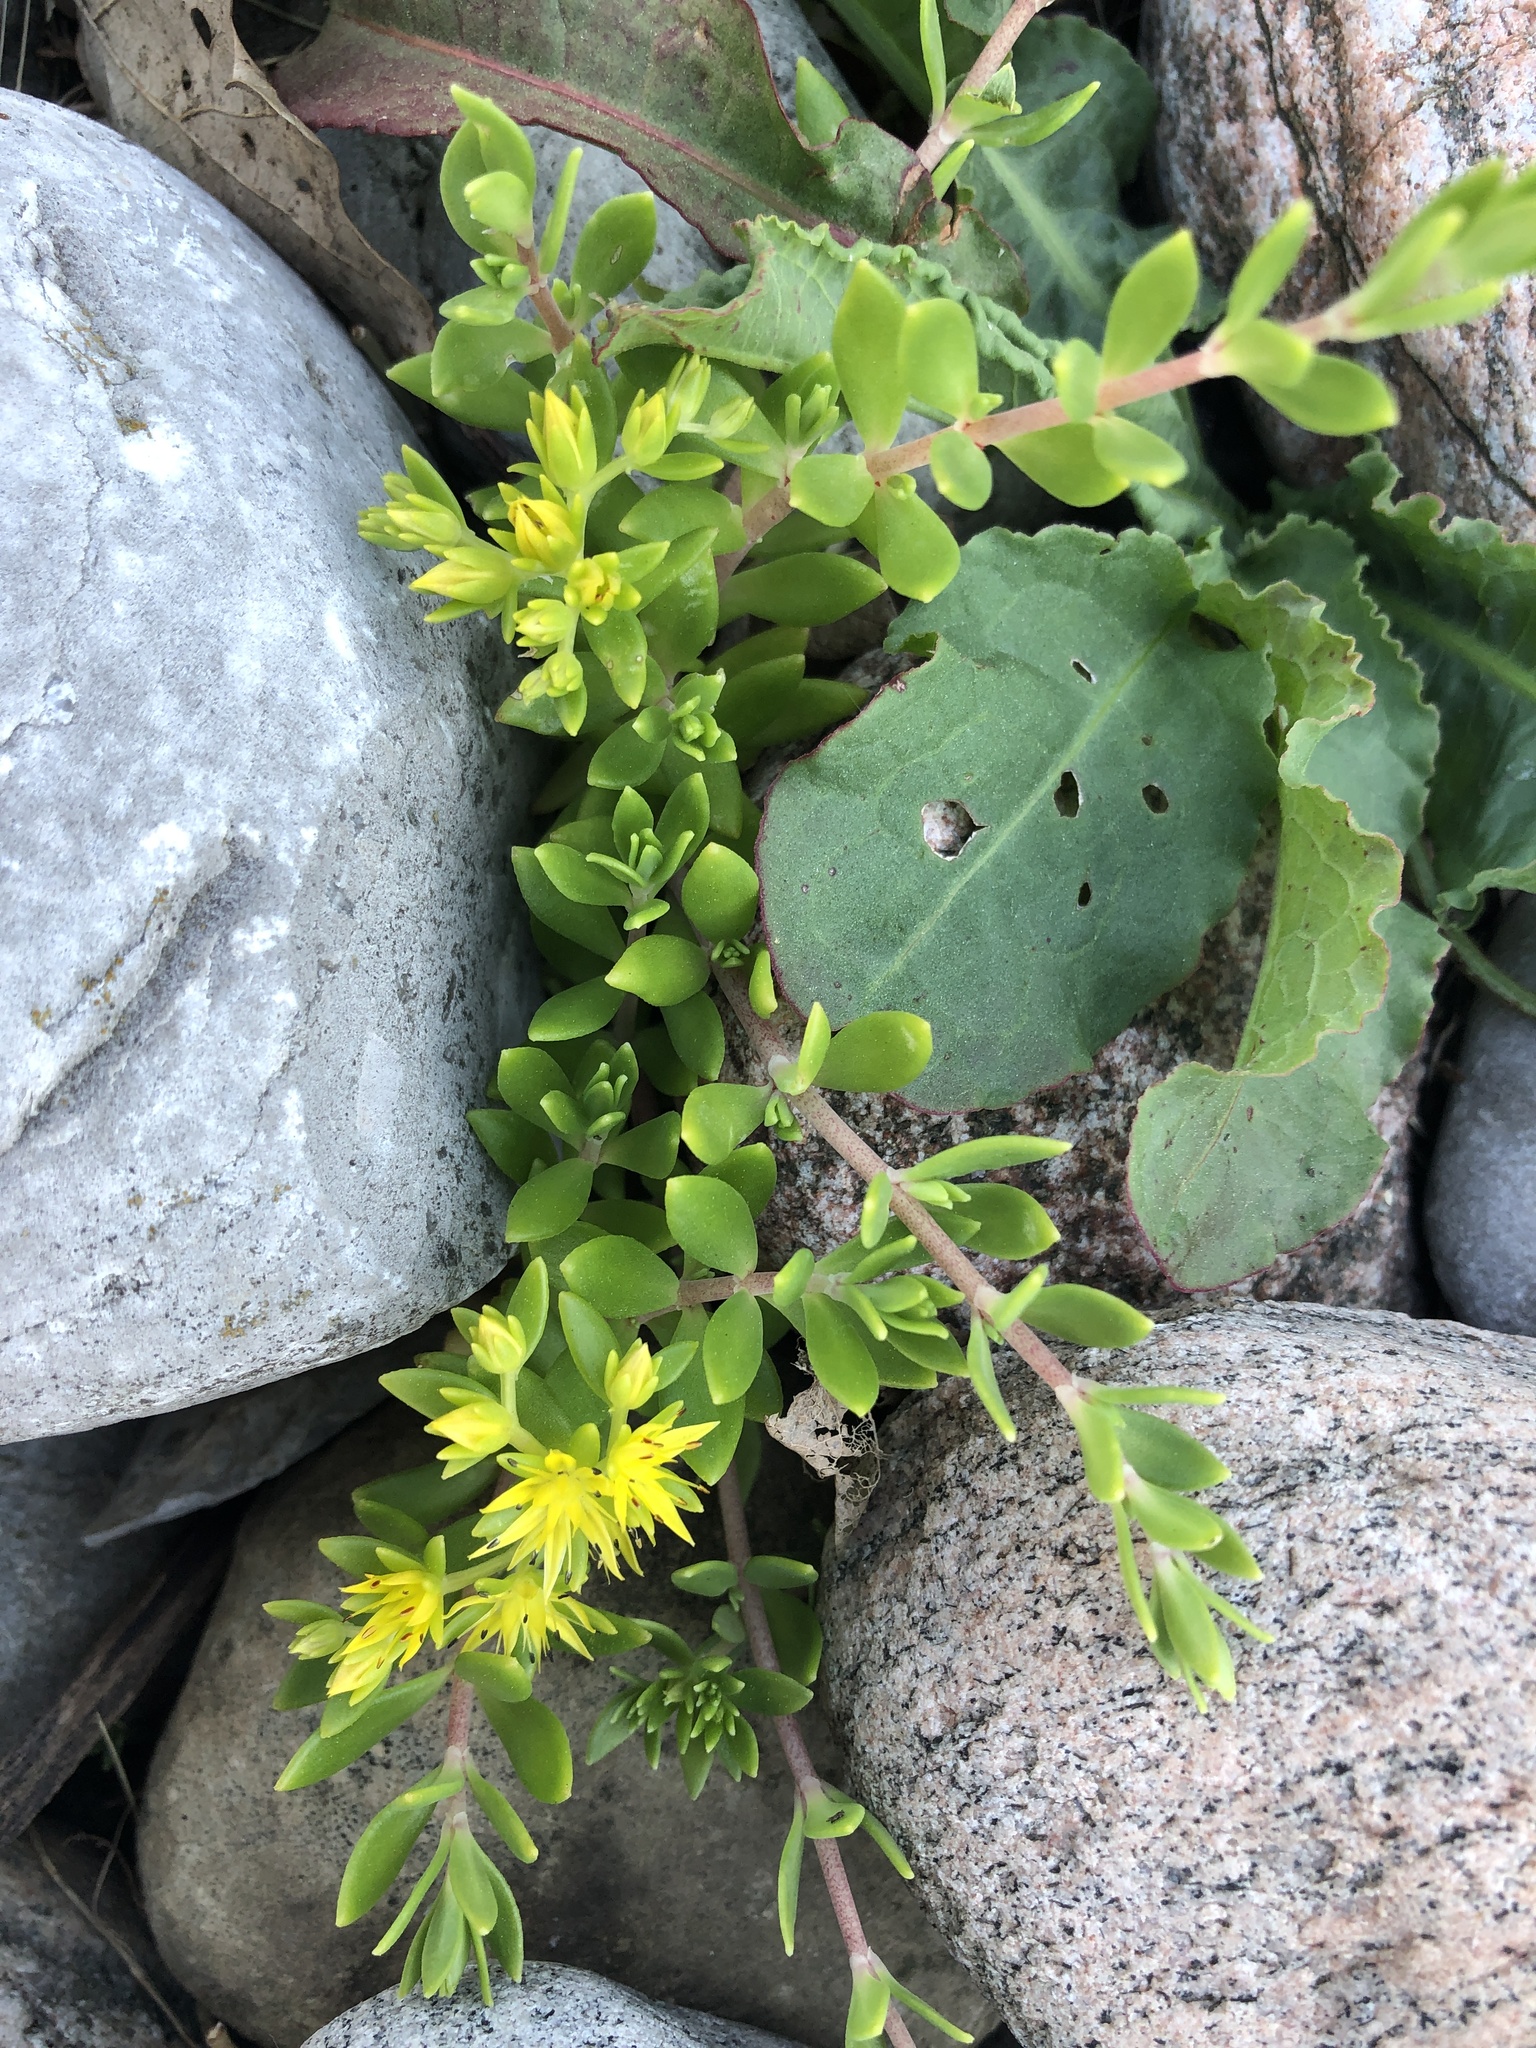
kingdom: Plantae
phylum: Tracheophyta
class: Magnoliopsida
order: Saxifragales
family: Crassulaceae
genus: Sedum
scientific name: Sedum sarmentosum
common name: Stringy stonecrop
